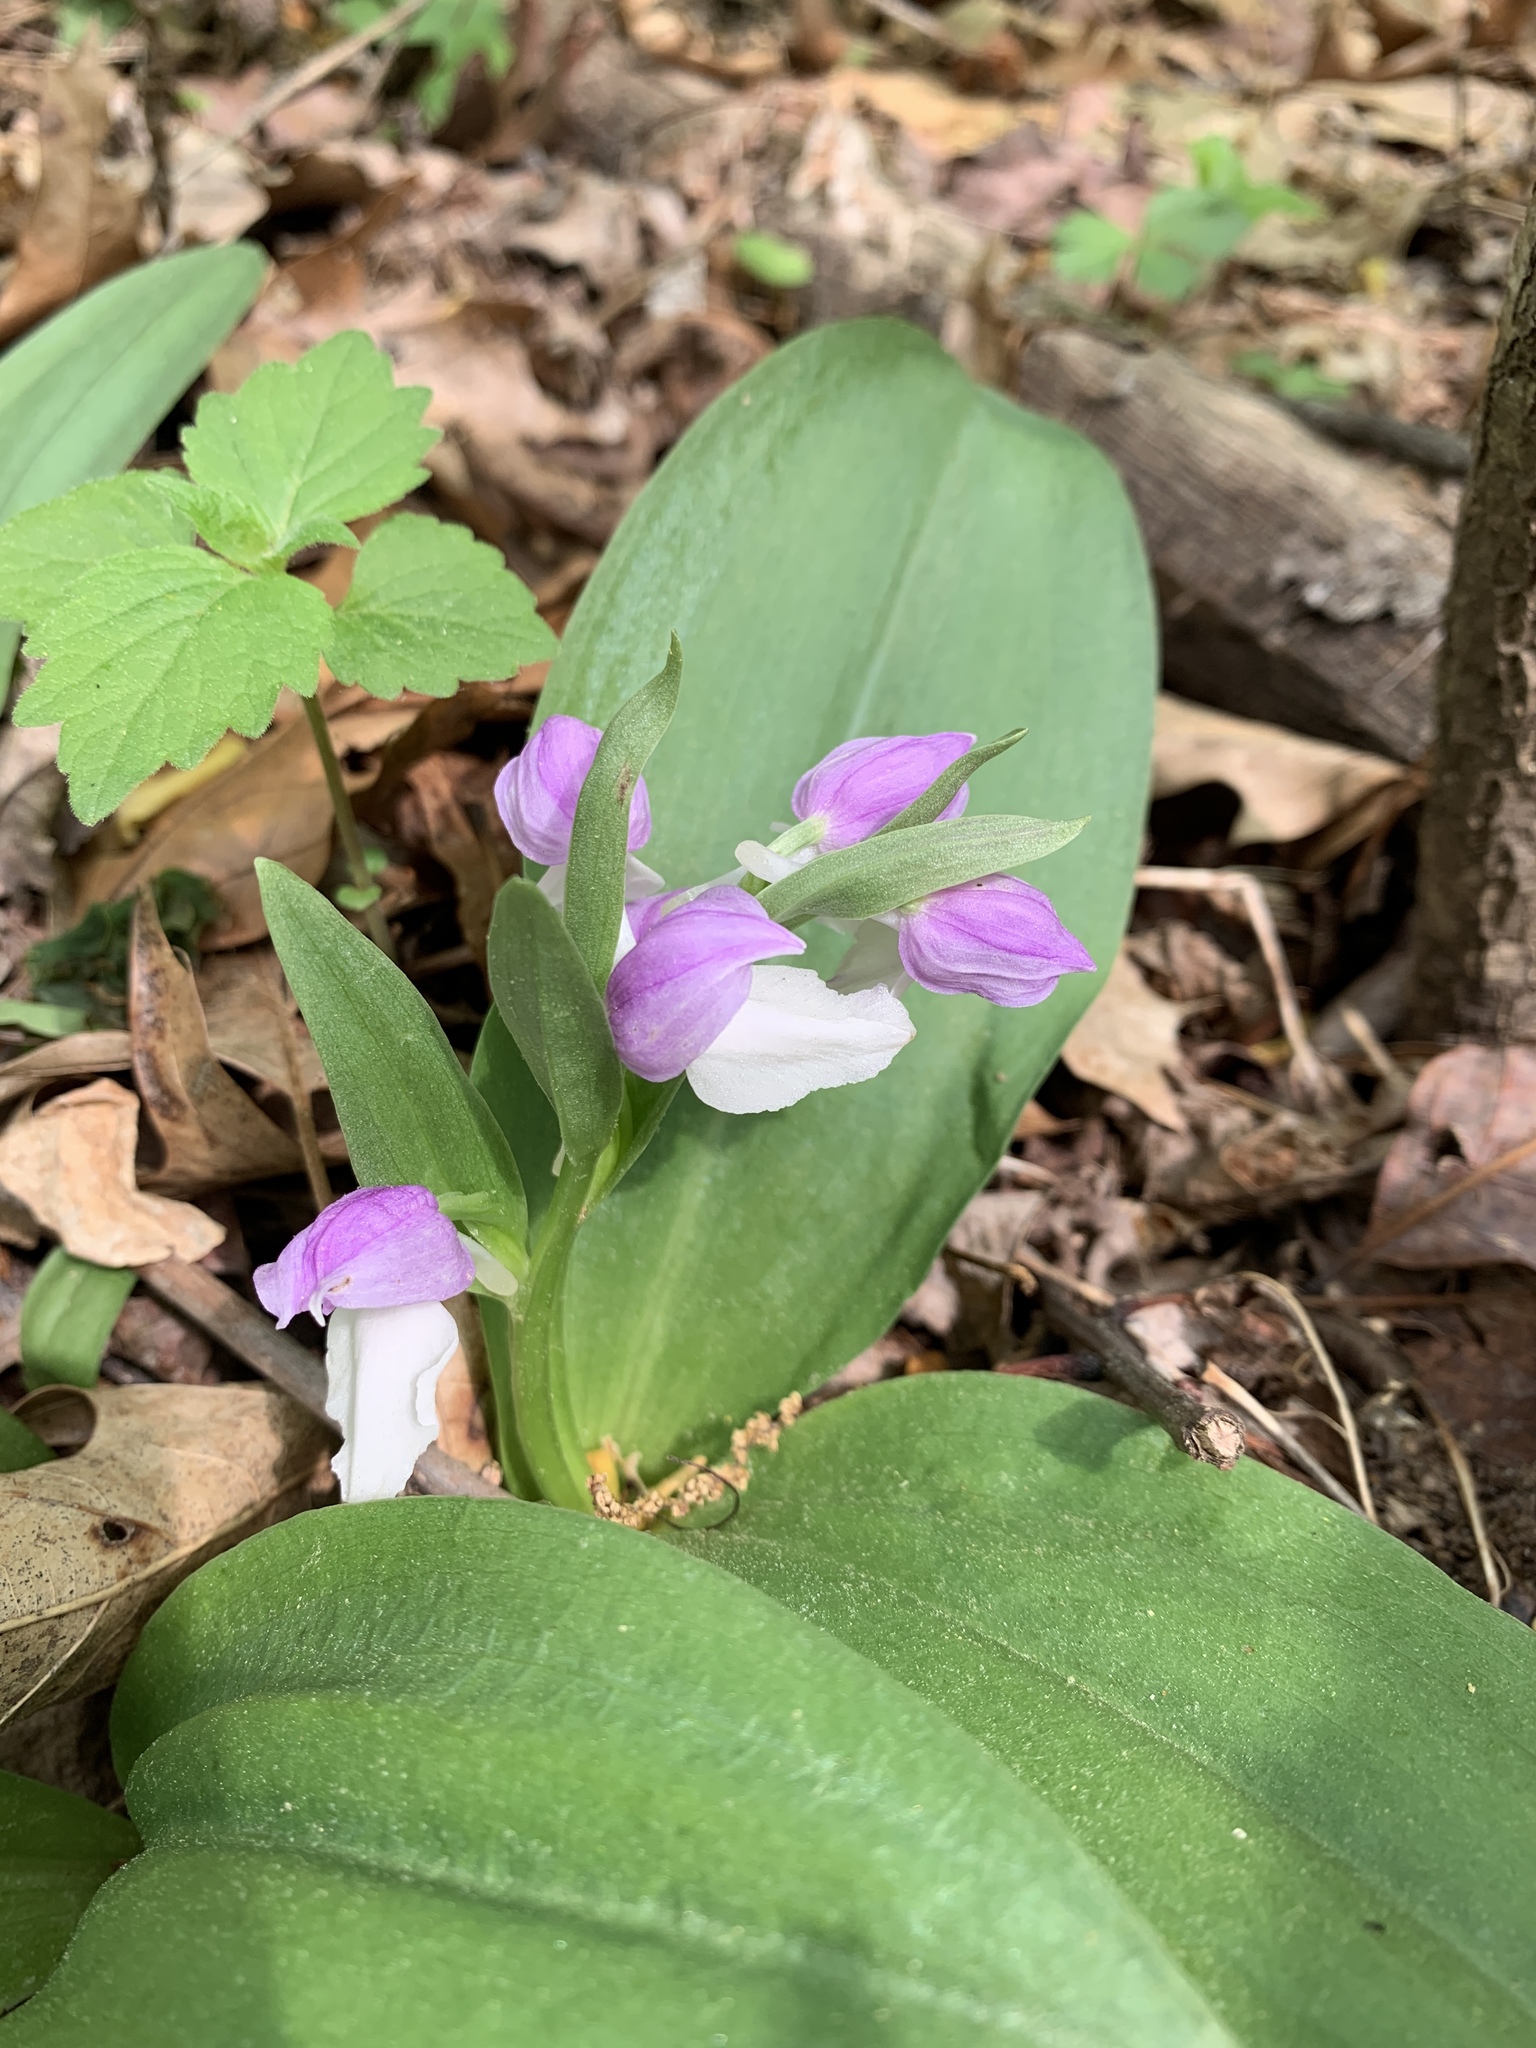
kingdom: Plantae
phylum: Tracheophyta
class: Liliopsida
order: Asparagales
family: Orchidaceae
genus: Galearis
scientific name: Galearis spectabilis
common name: Purple-hooded orchis
